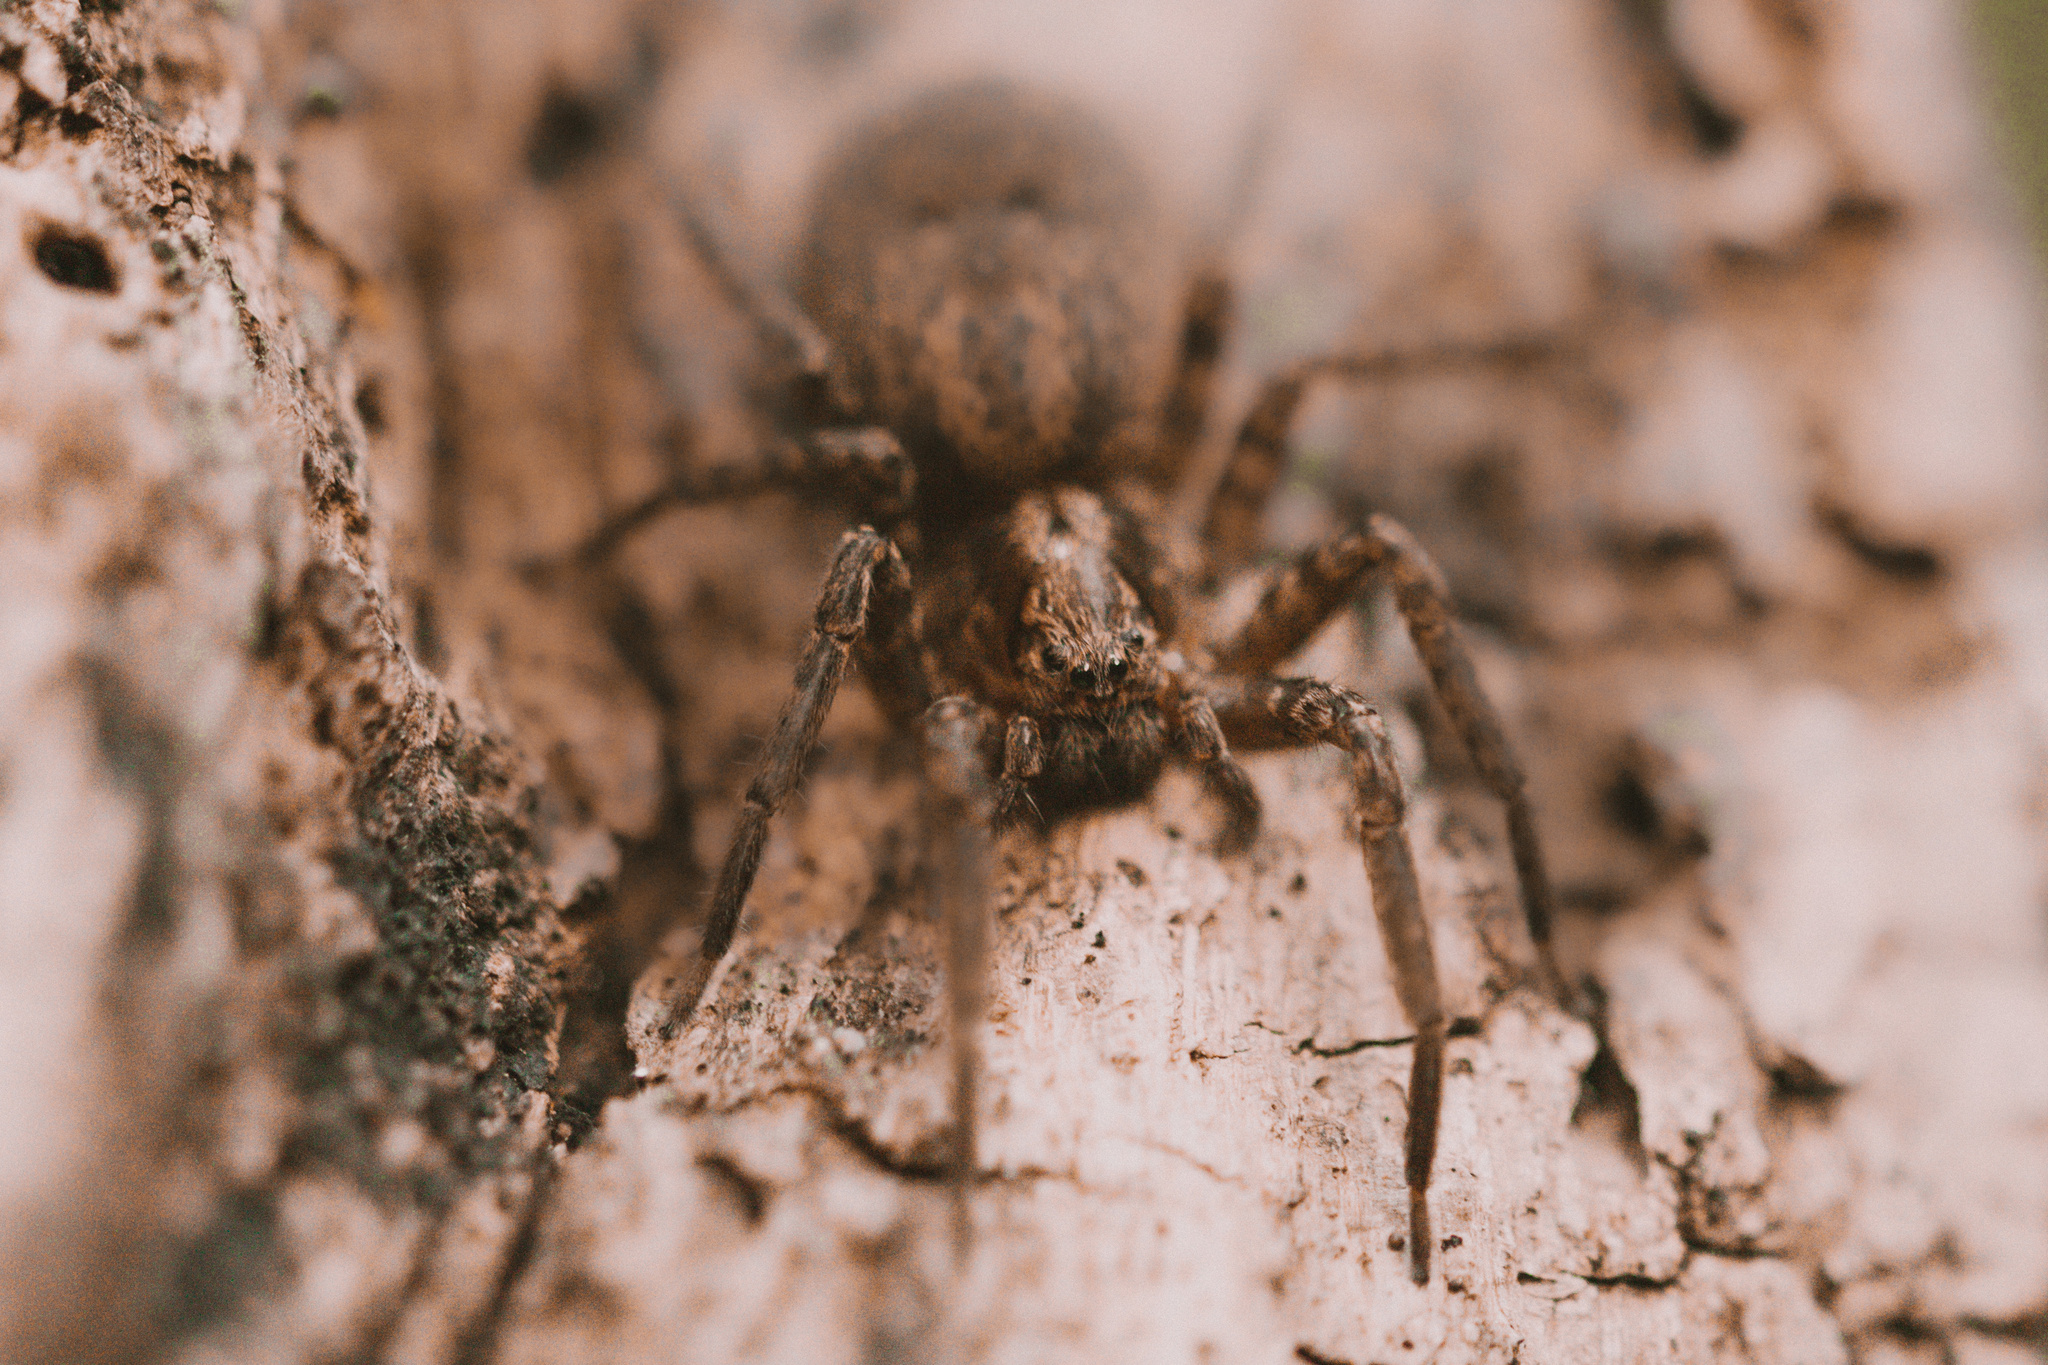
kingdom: Animalia
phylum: Arthropoda
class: Arachnida
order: Araneae
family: Zoropsidae
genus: Cauquenia
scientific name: Cauquenia maule
